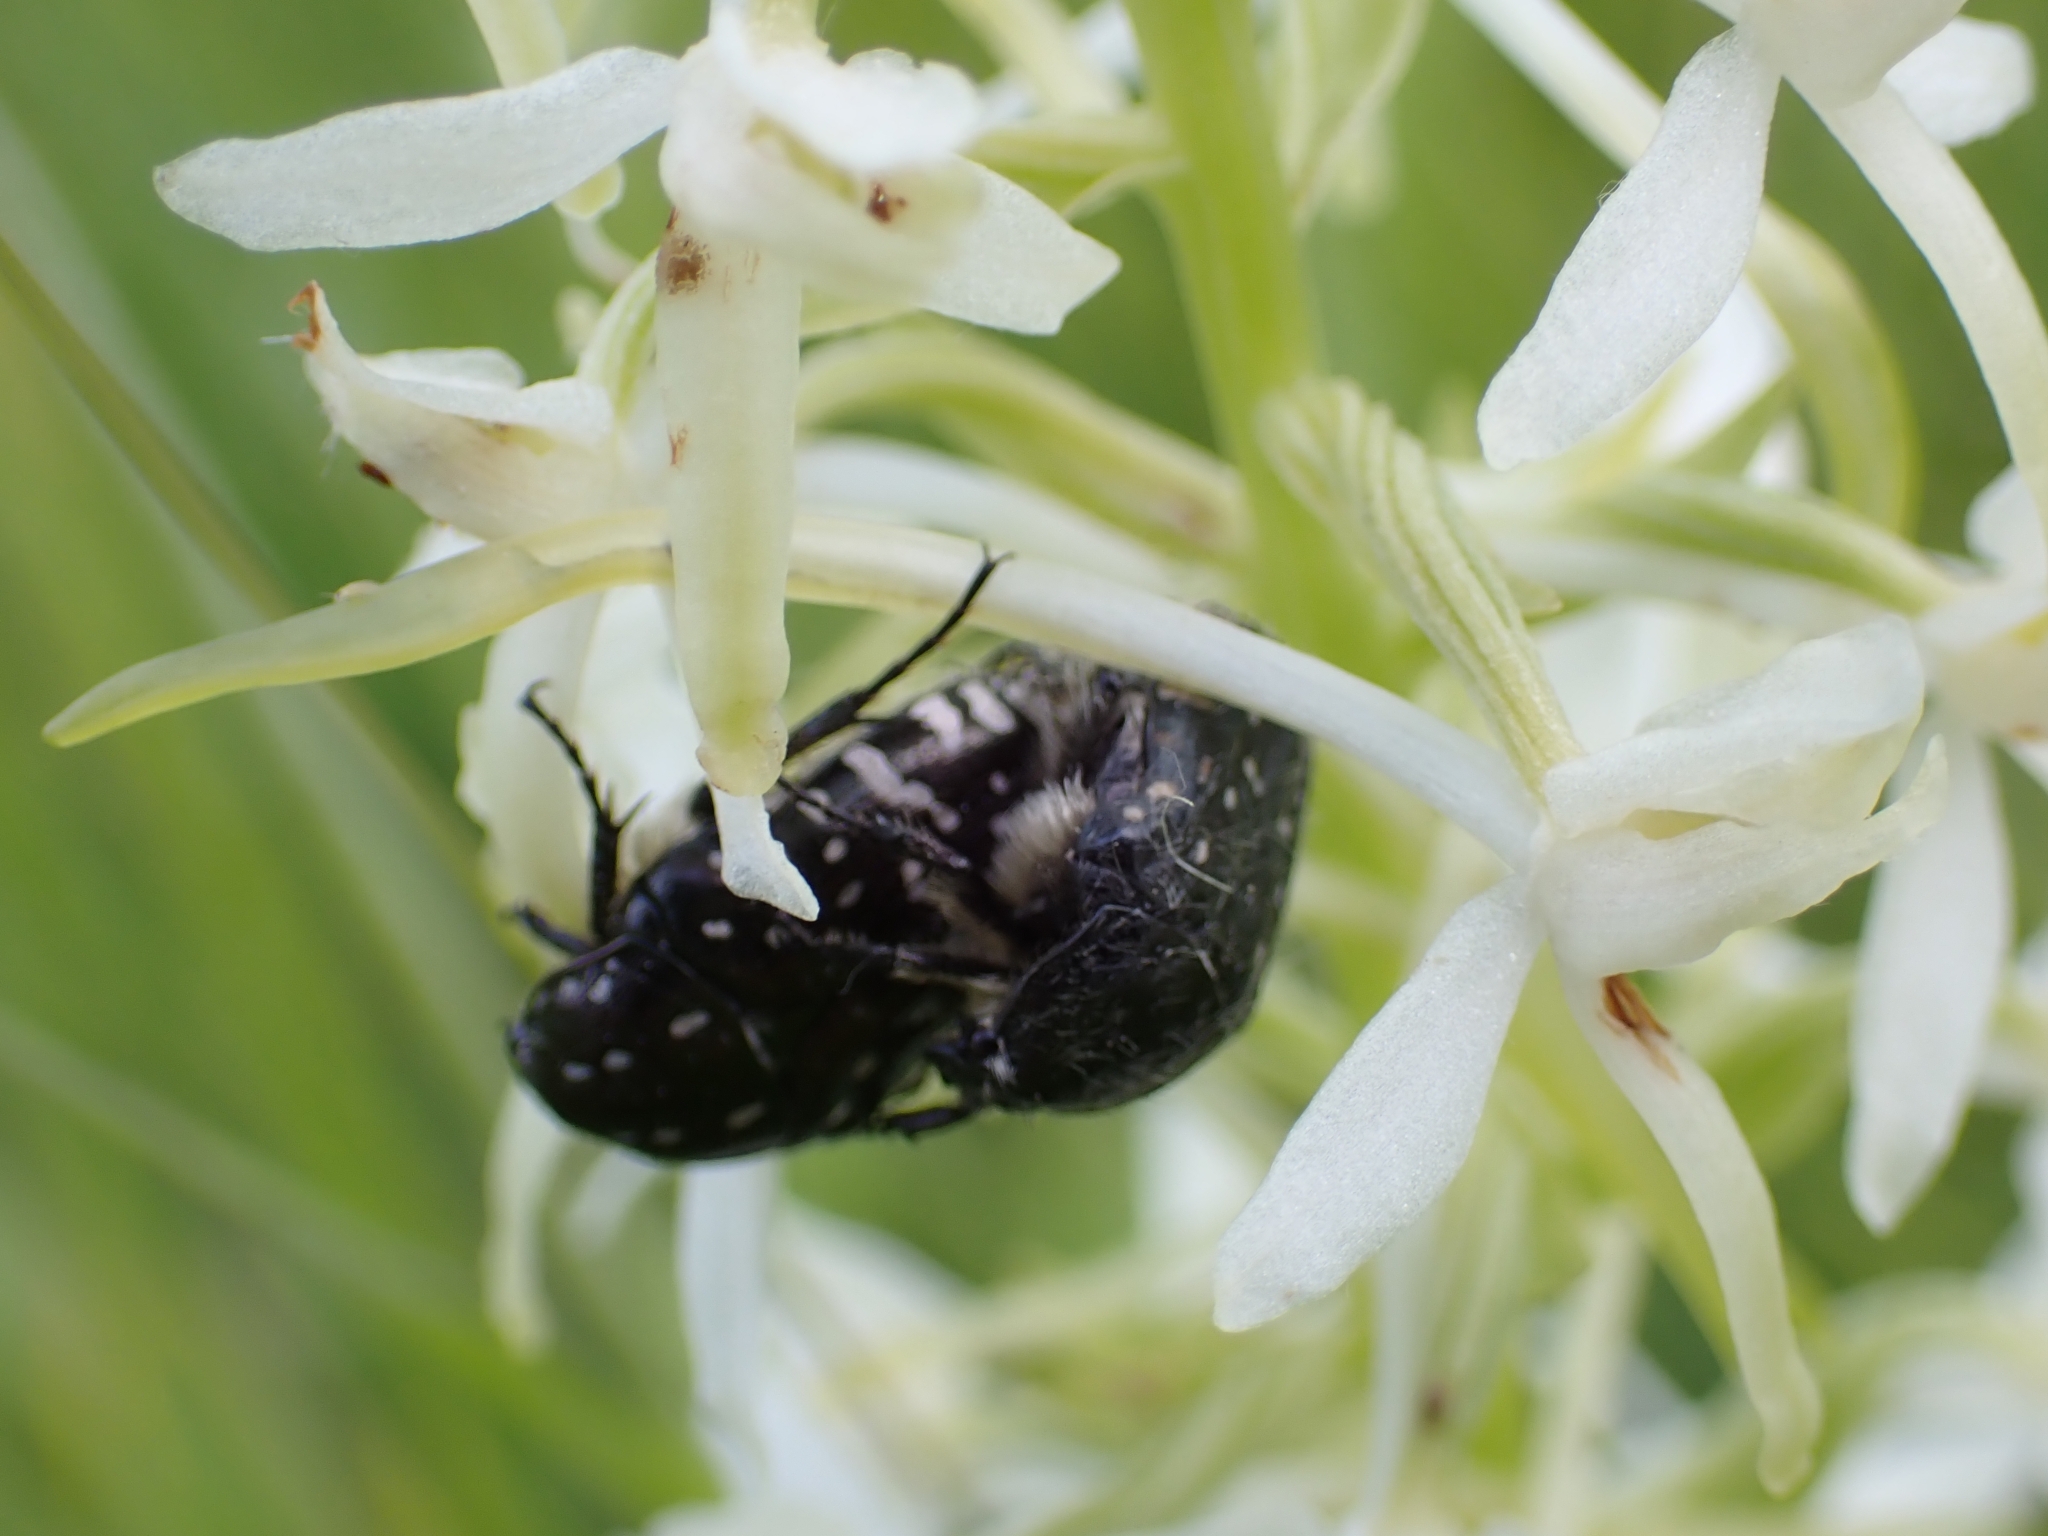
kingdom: Animalia
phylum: Arthropoda
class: Insecta
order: Coleoptera
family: Scarabaeidae
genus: Oxythyrea
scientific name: Oxythyrea funesta
